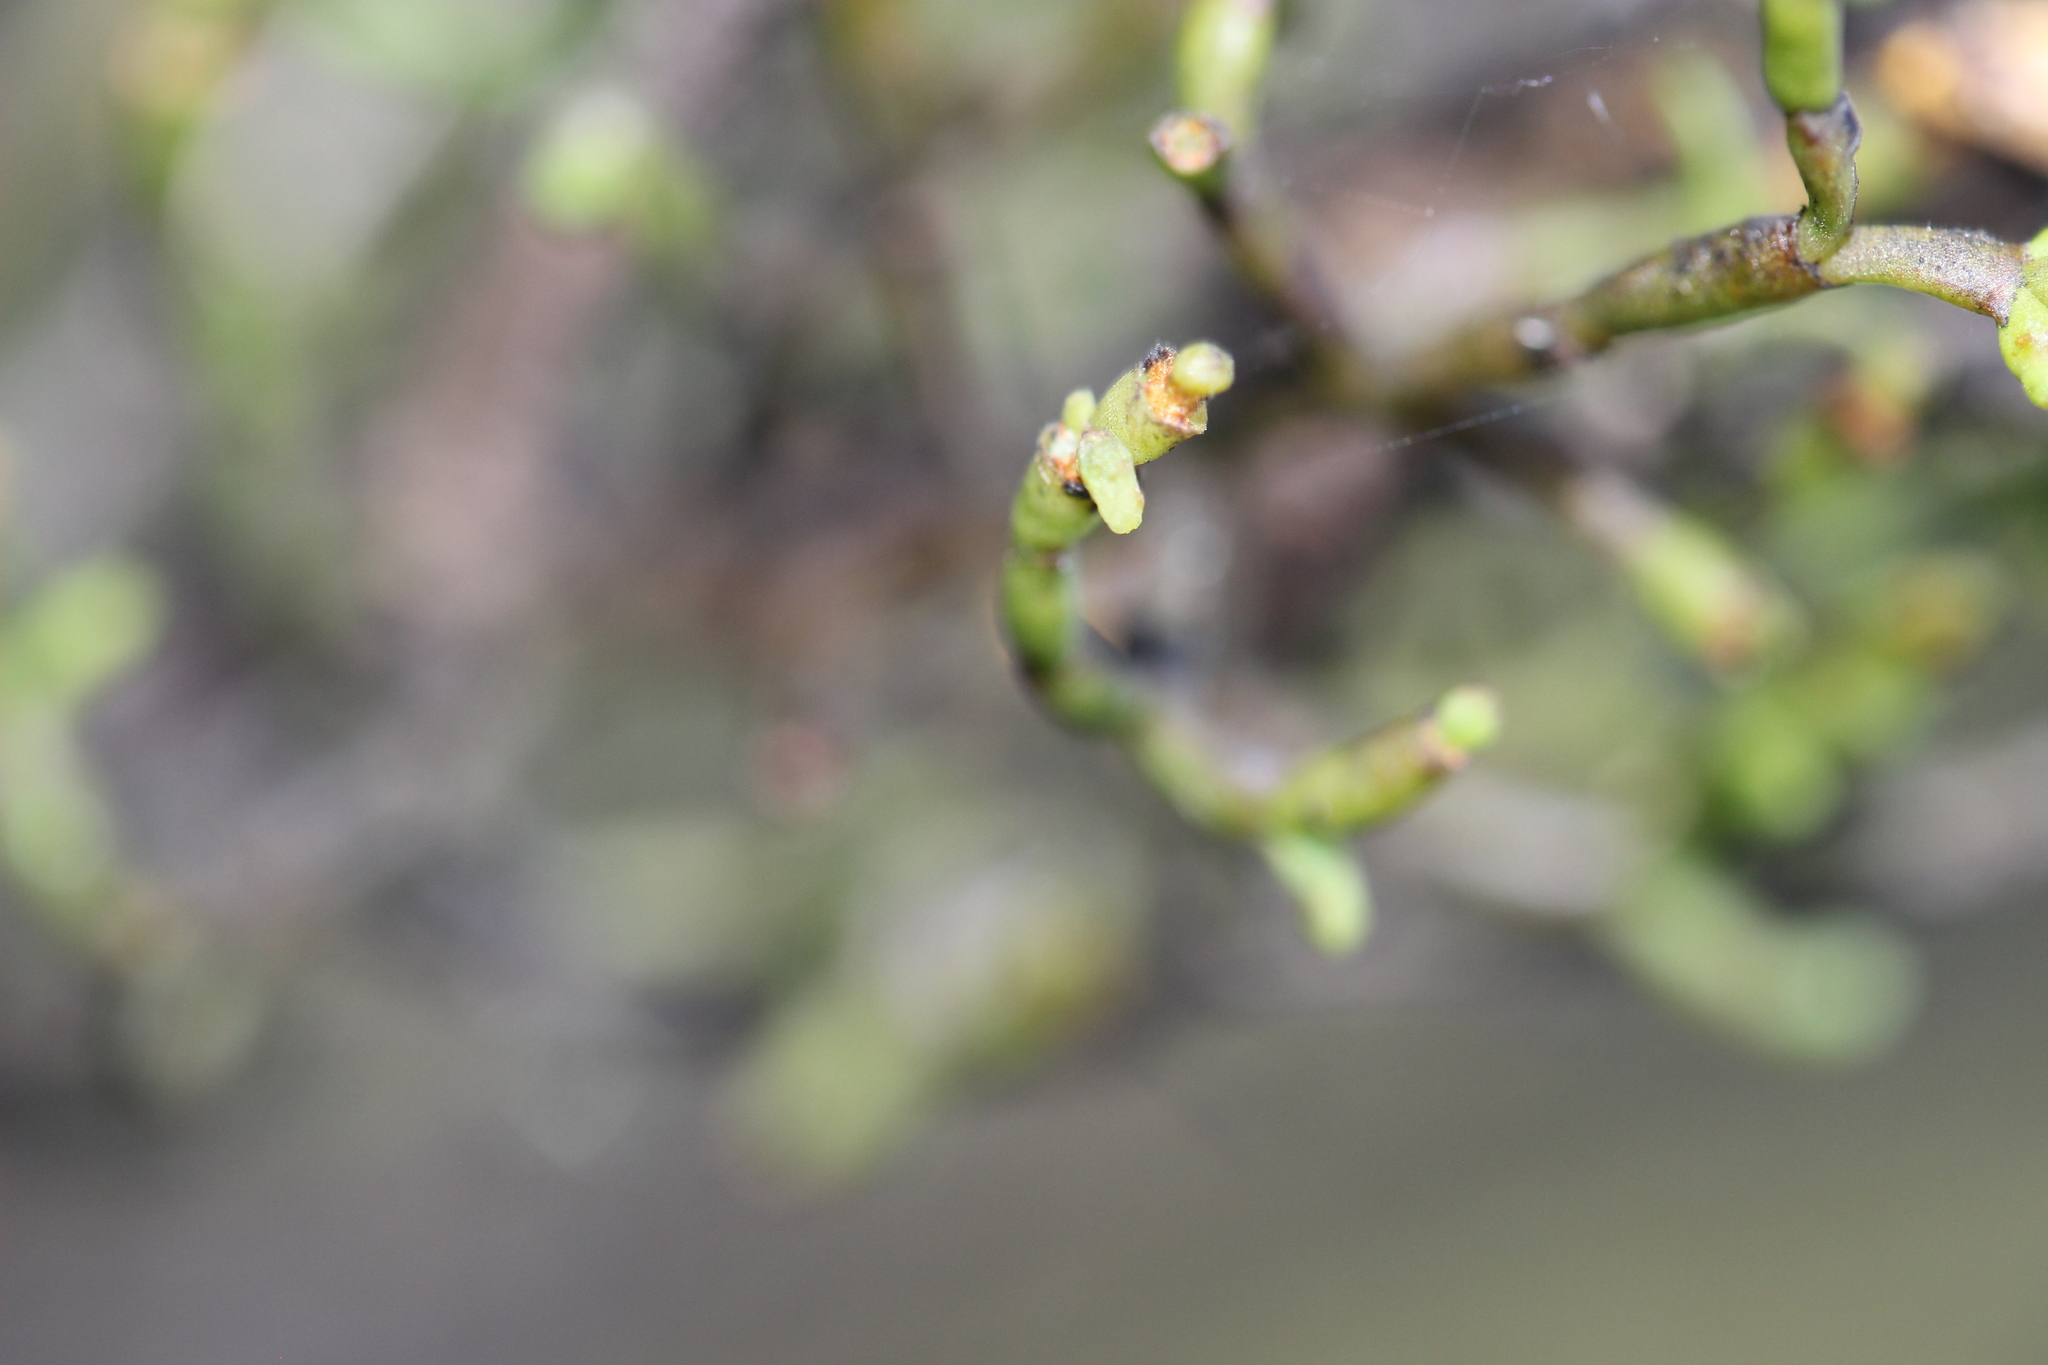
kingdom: Plantae
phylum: Tracheophyta
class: Magnoliopsida
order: Santalales
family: Viscaceae
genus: Korthalsella
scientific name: Korthalsella salicornioides
